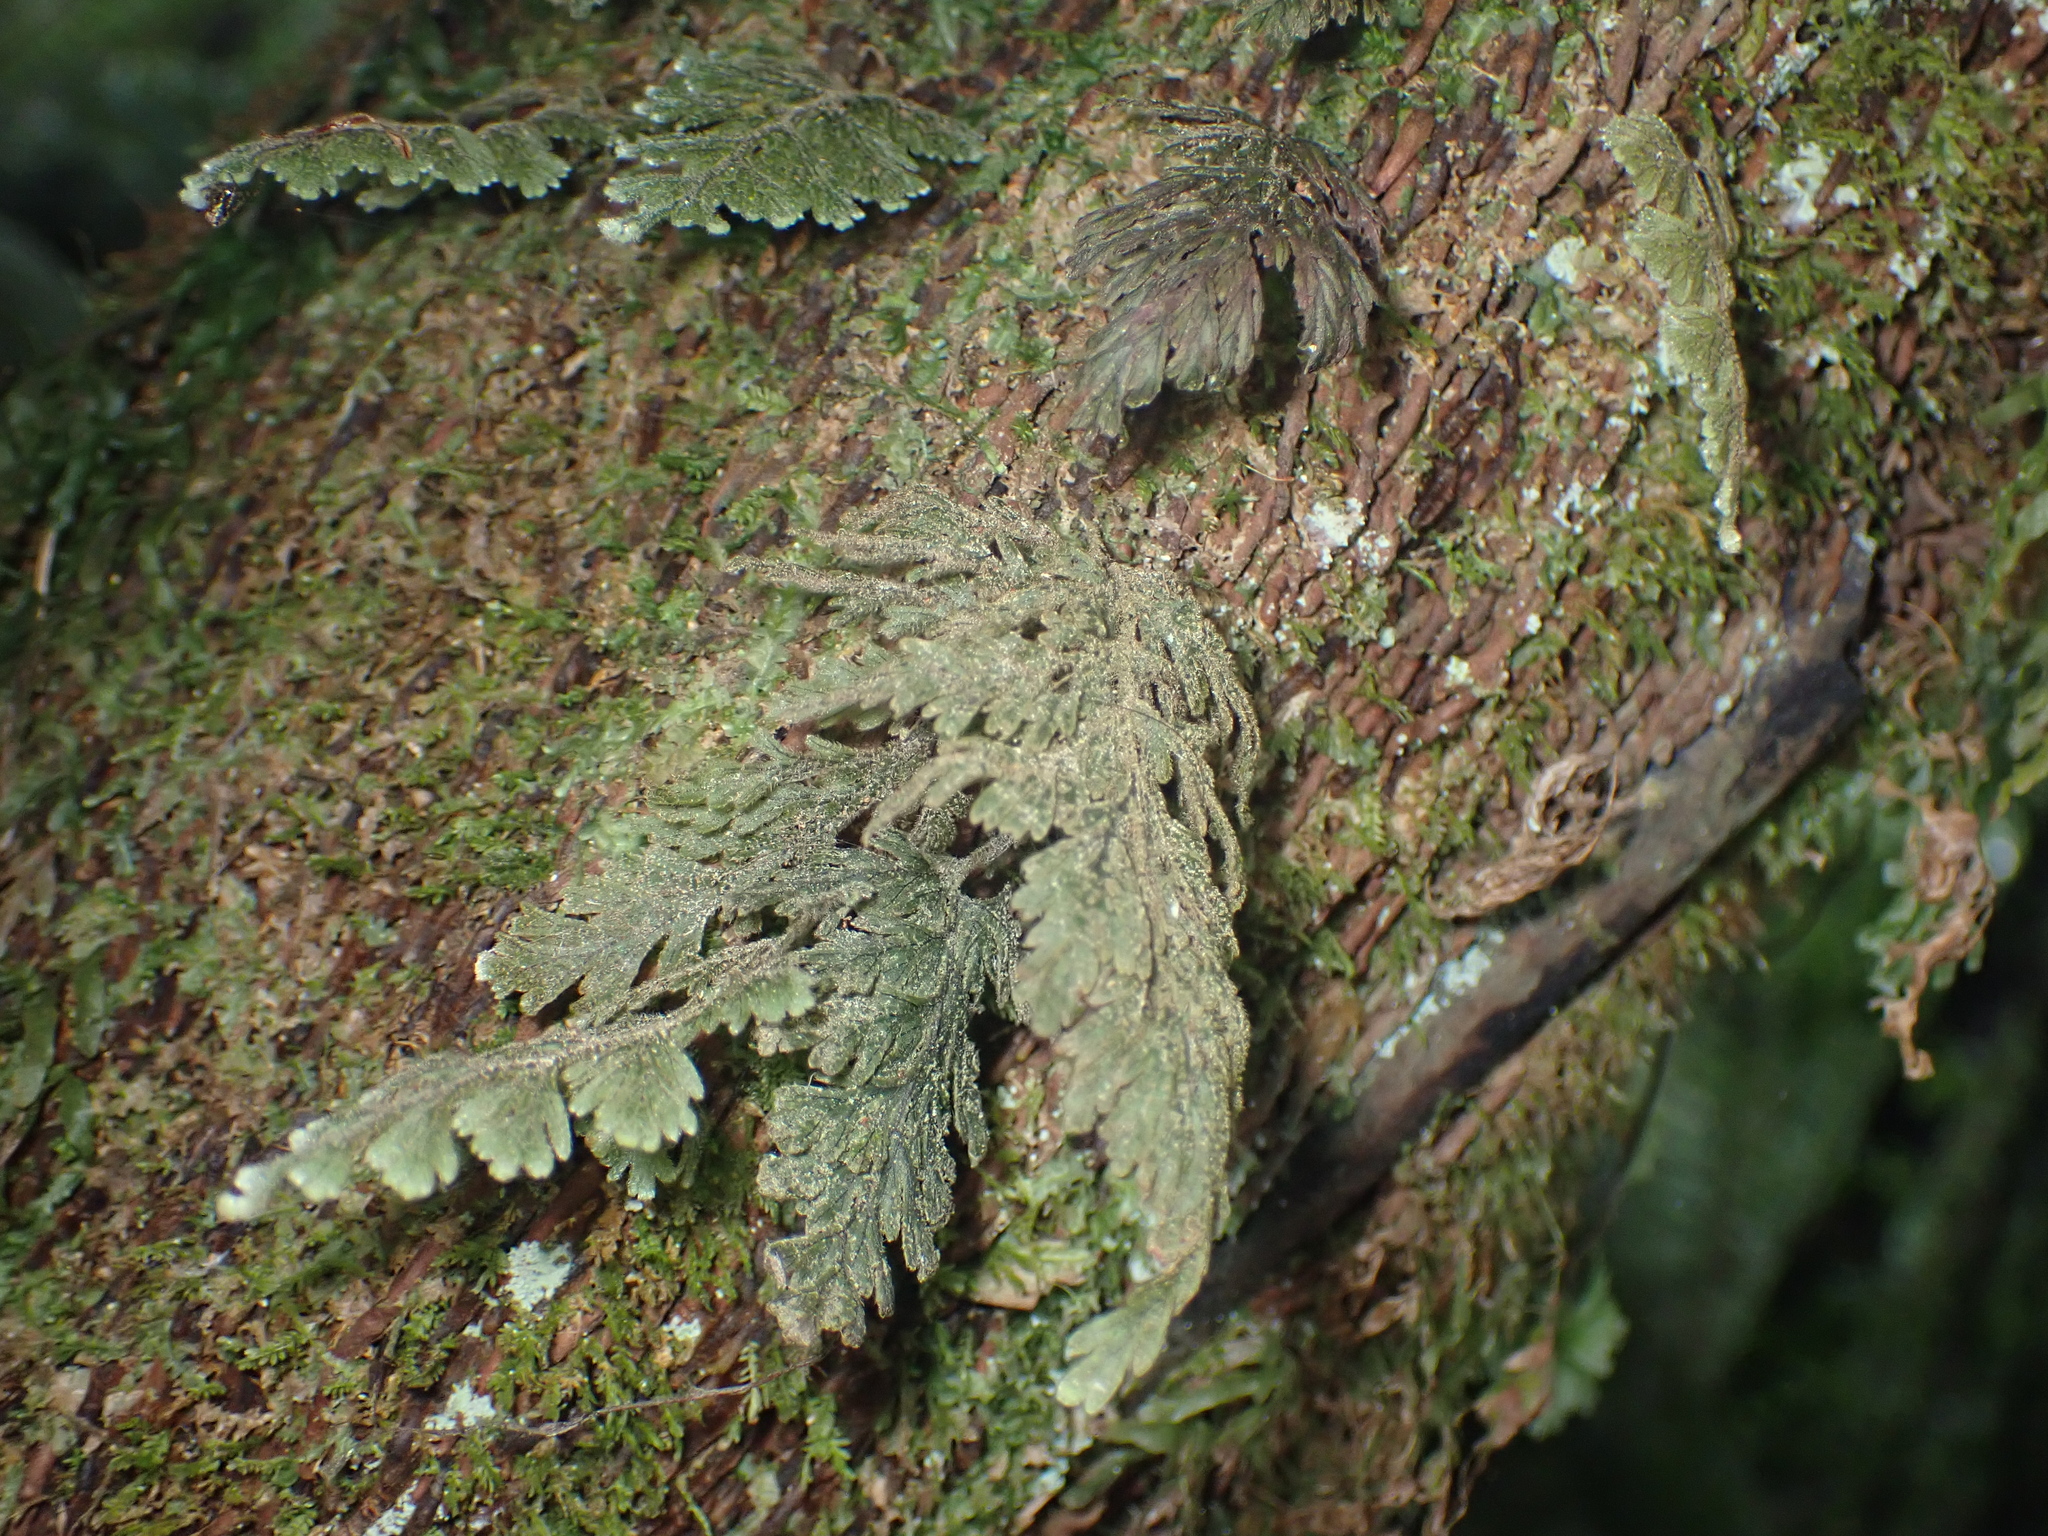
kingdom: Plantae
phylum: Tracheophyta
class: Polypodiopsida
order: Hymenophyllales
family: Hymenophyllaceae
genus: Hymenophyllum
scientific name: Hymenophyllum frankliniae
